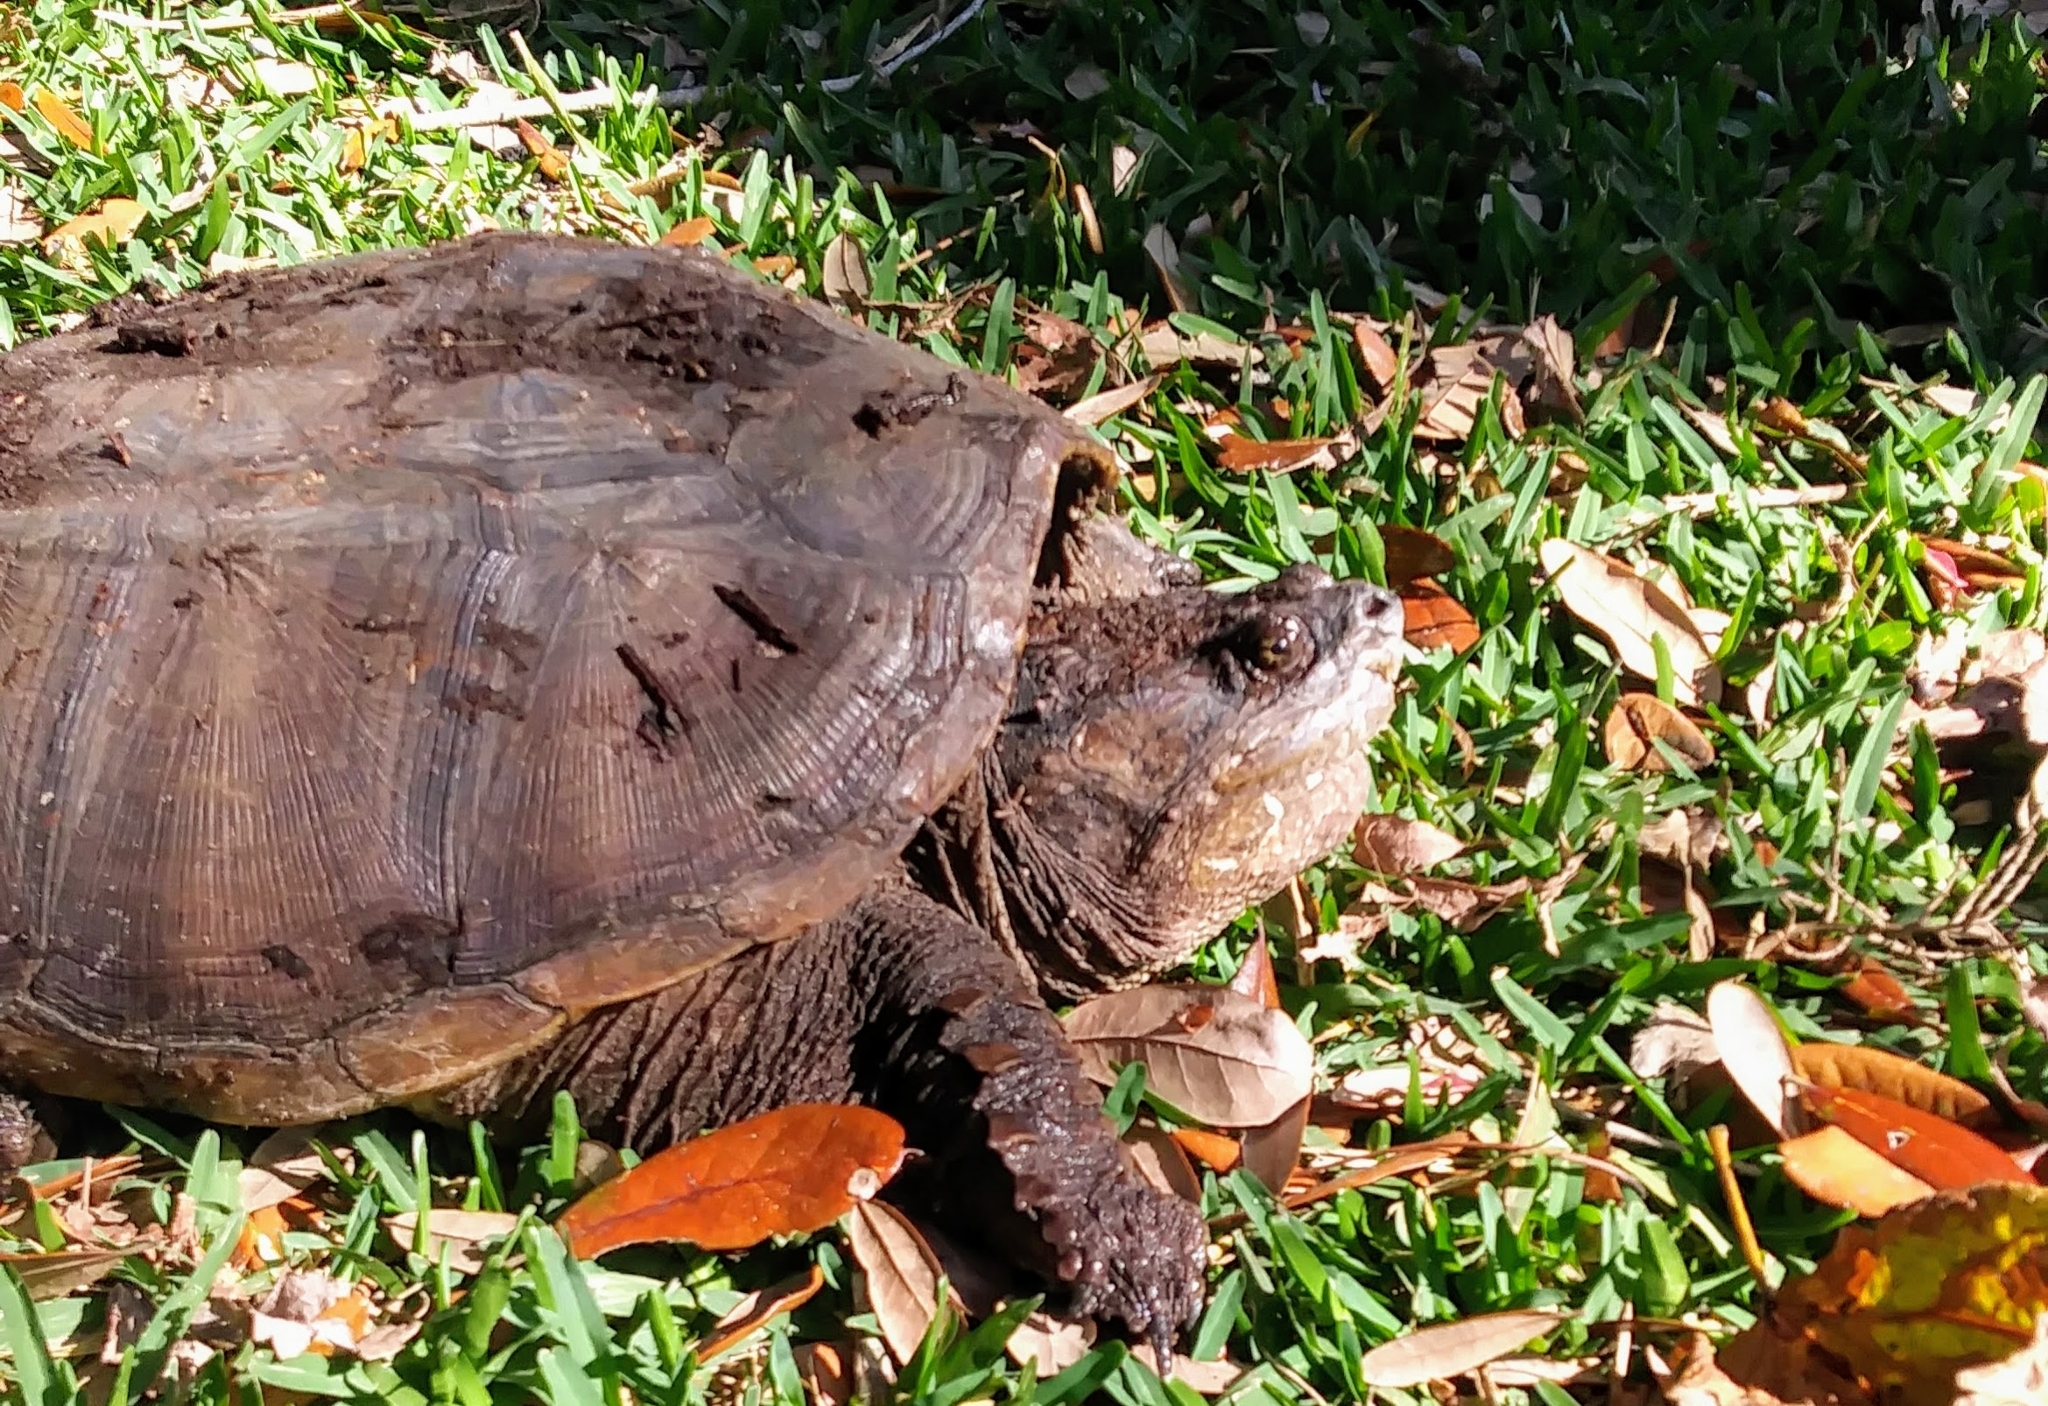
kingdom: Animalia
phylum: Chordata
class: Testudines
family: Chelydridae
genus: Chelydra
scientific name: Chelydra serpentina
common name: Common snapping turtle
